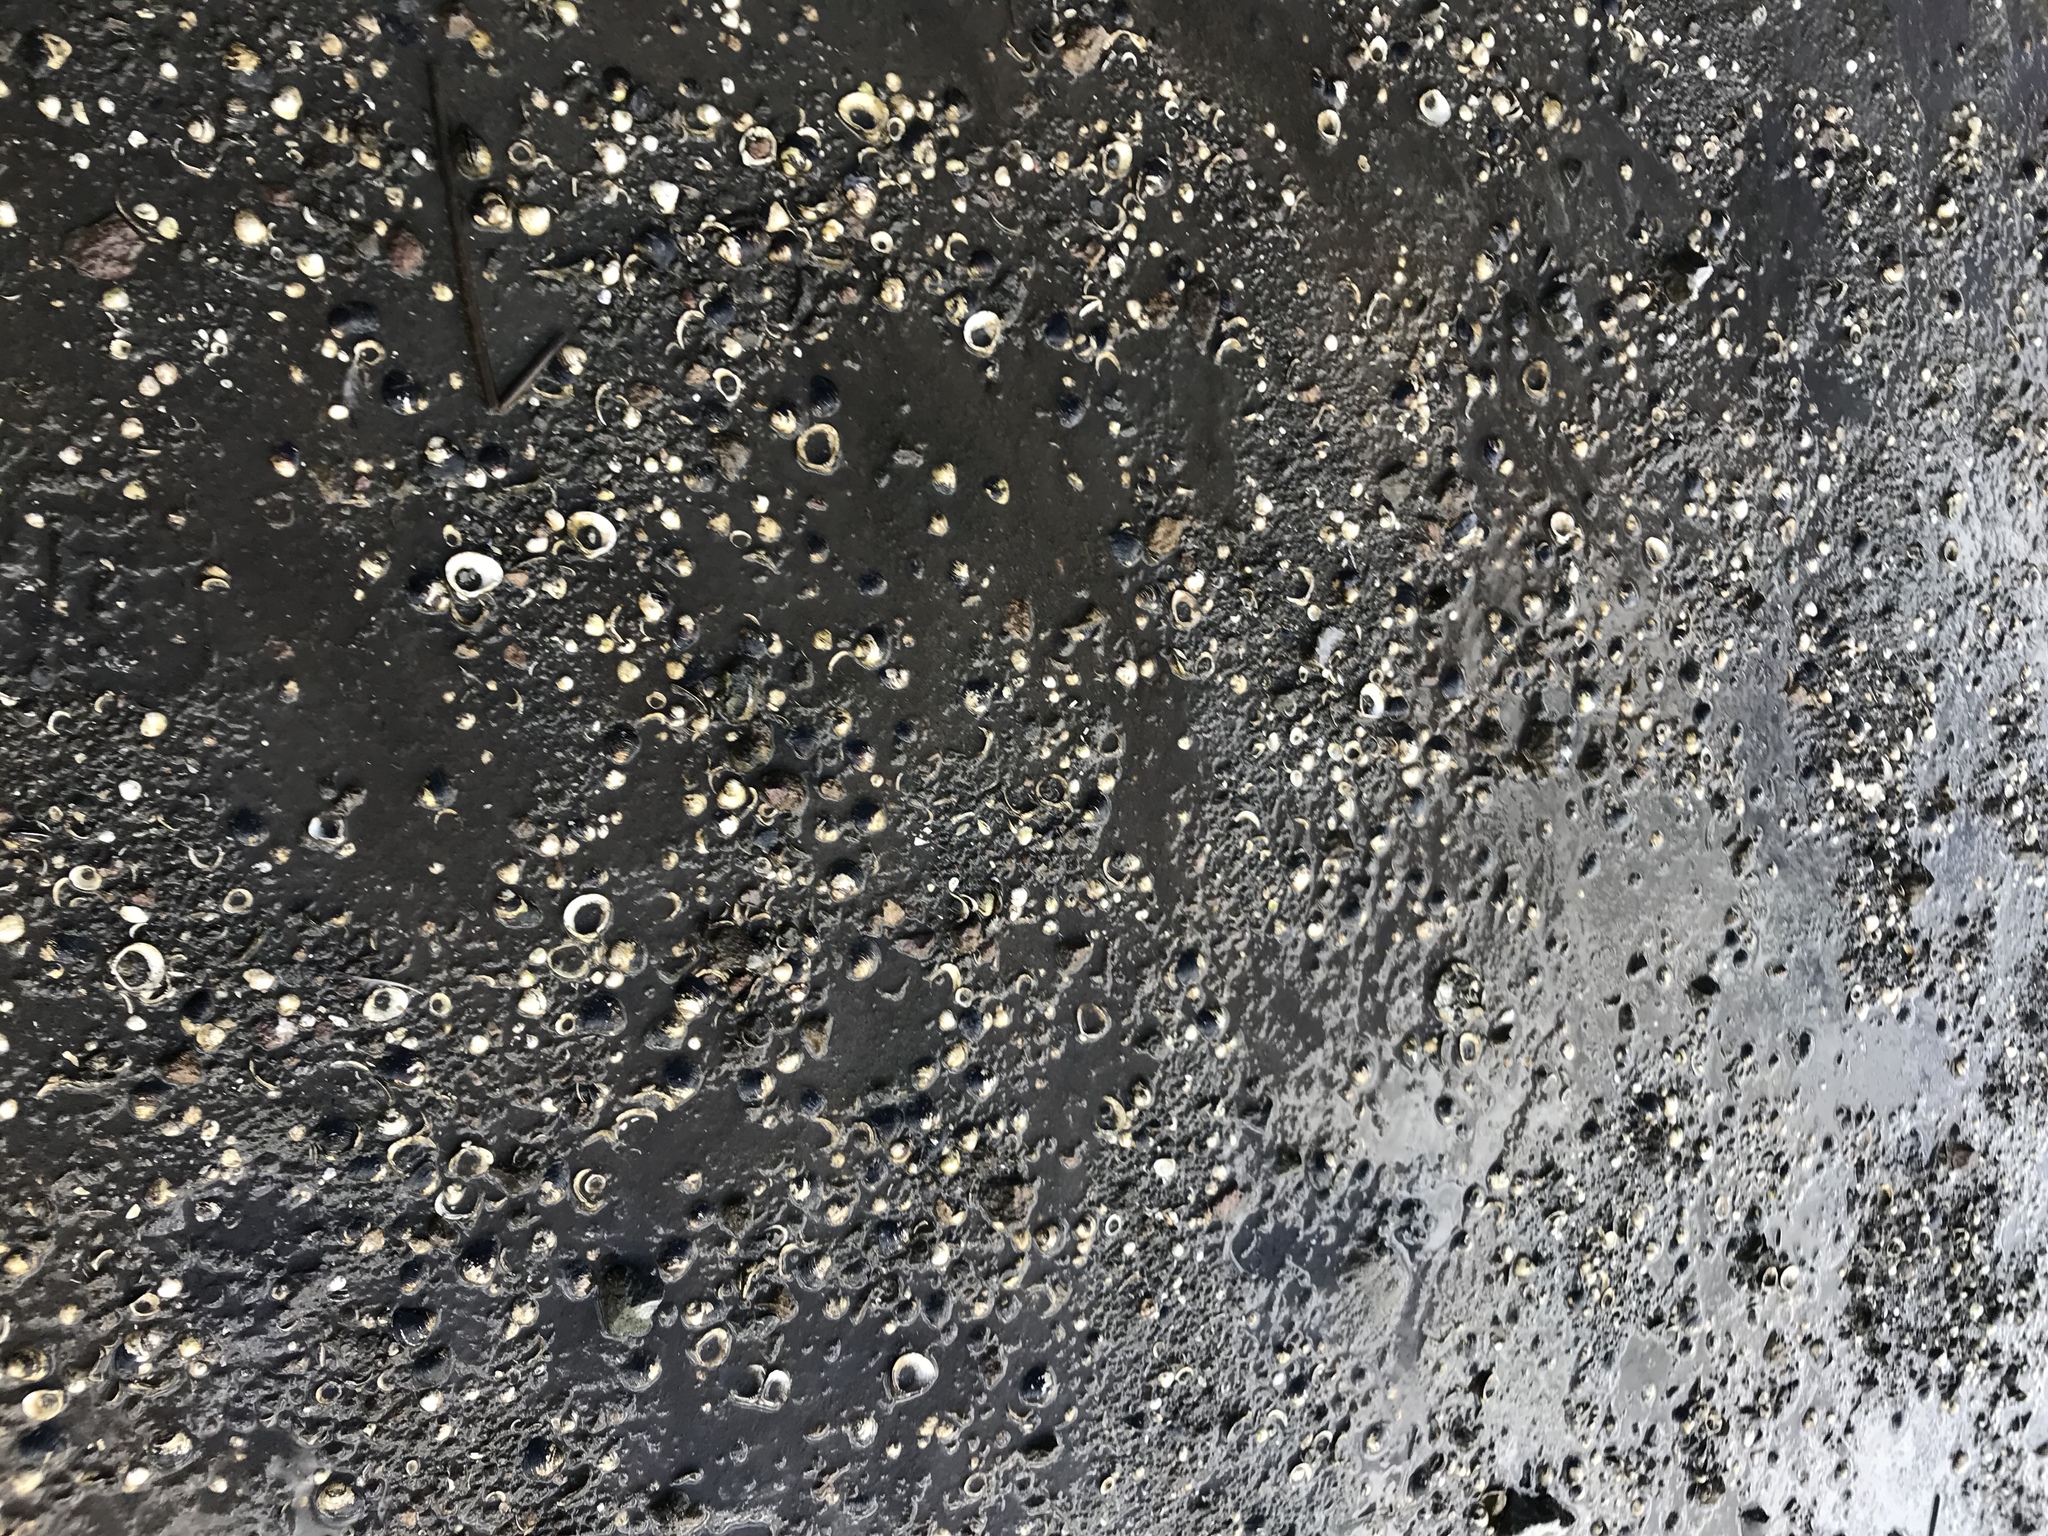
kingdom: Animalia
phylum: Mollusca
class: Bivalvia
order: Venerida
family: Cyrenidae
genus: Corbicula
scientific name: Corbicula fluminea
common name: Asian clam
